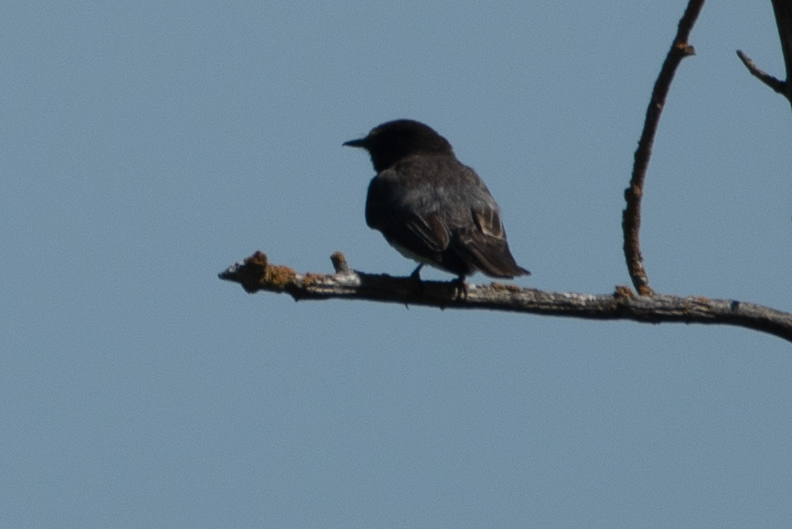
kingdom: Animalia
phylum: Chordata
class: Aves
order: Passeriformes
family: Tyrannidae
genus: Sayornis
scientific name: Sayornis nigricans
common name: Black phoebe
